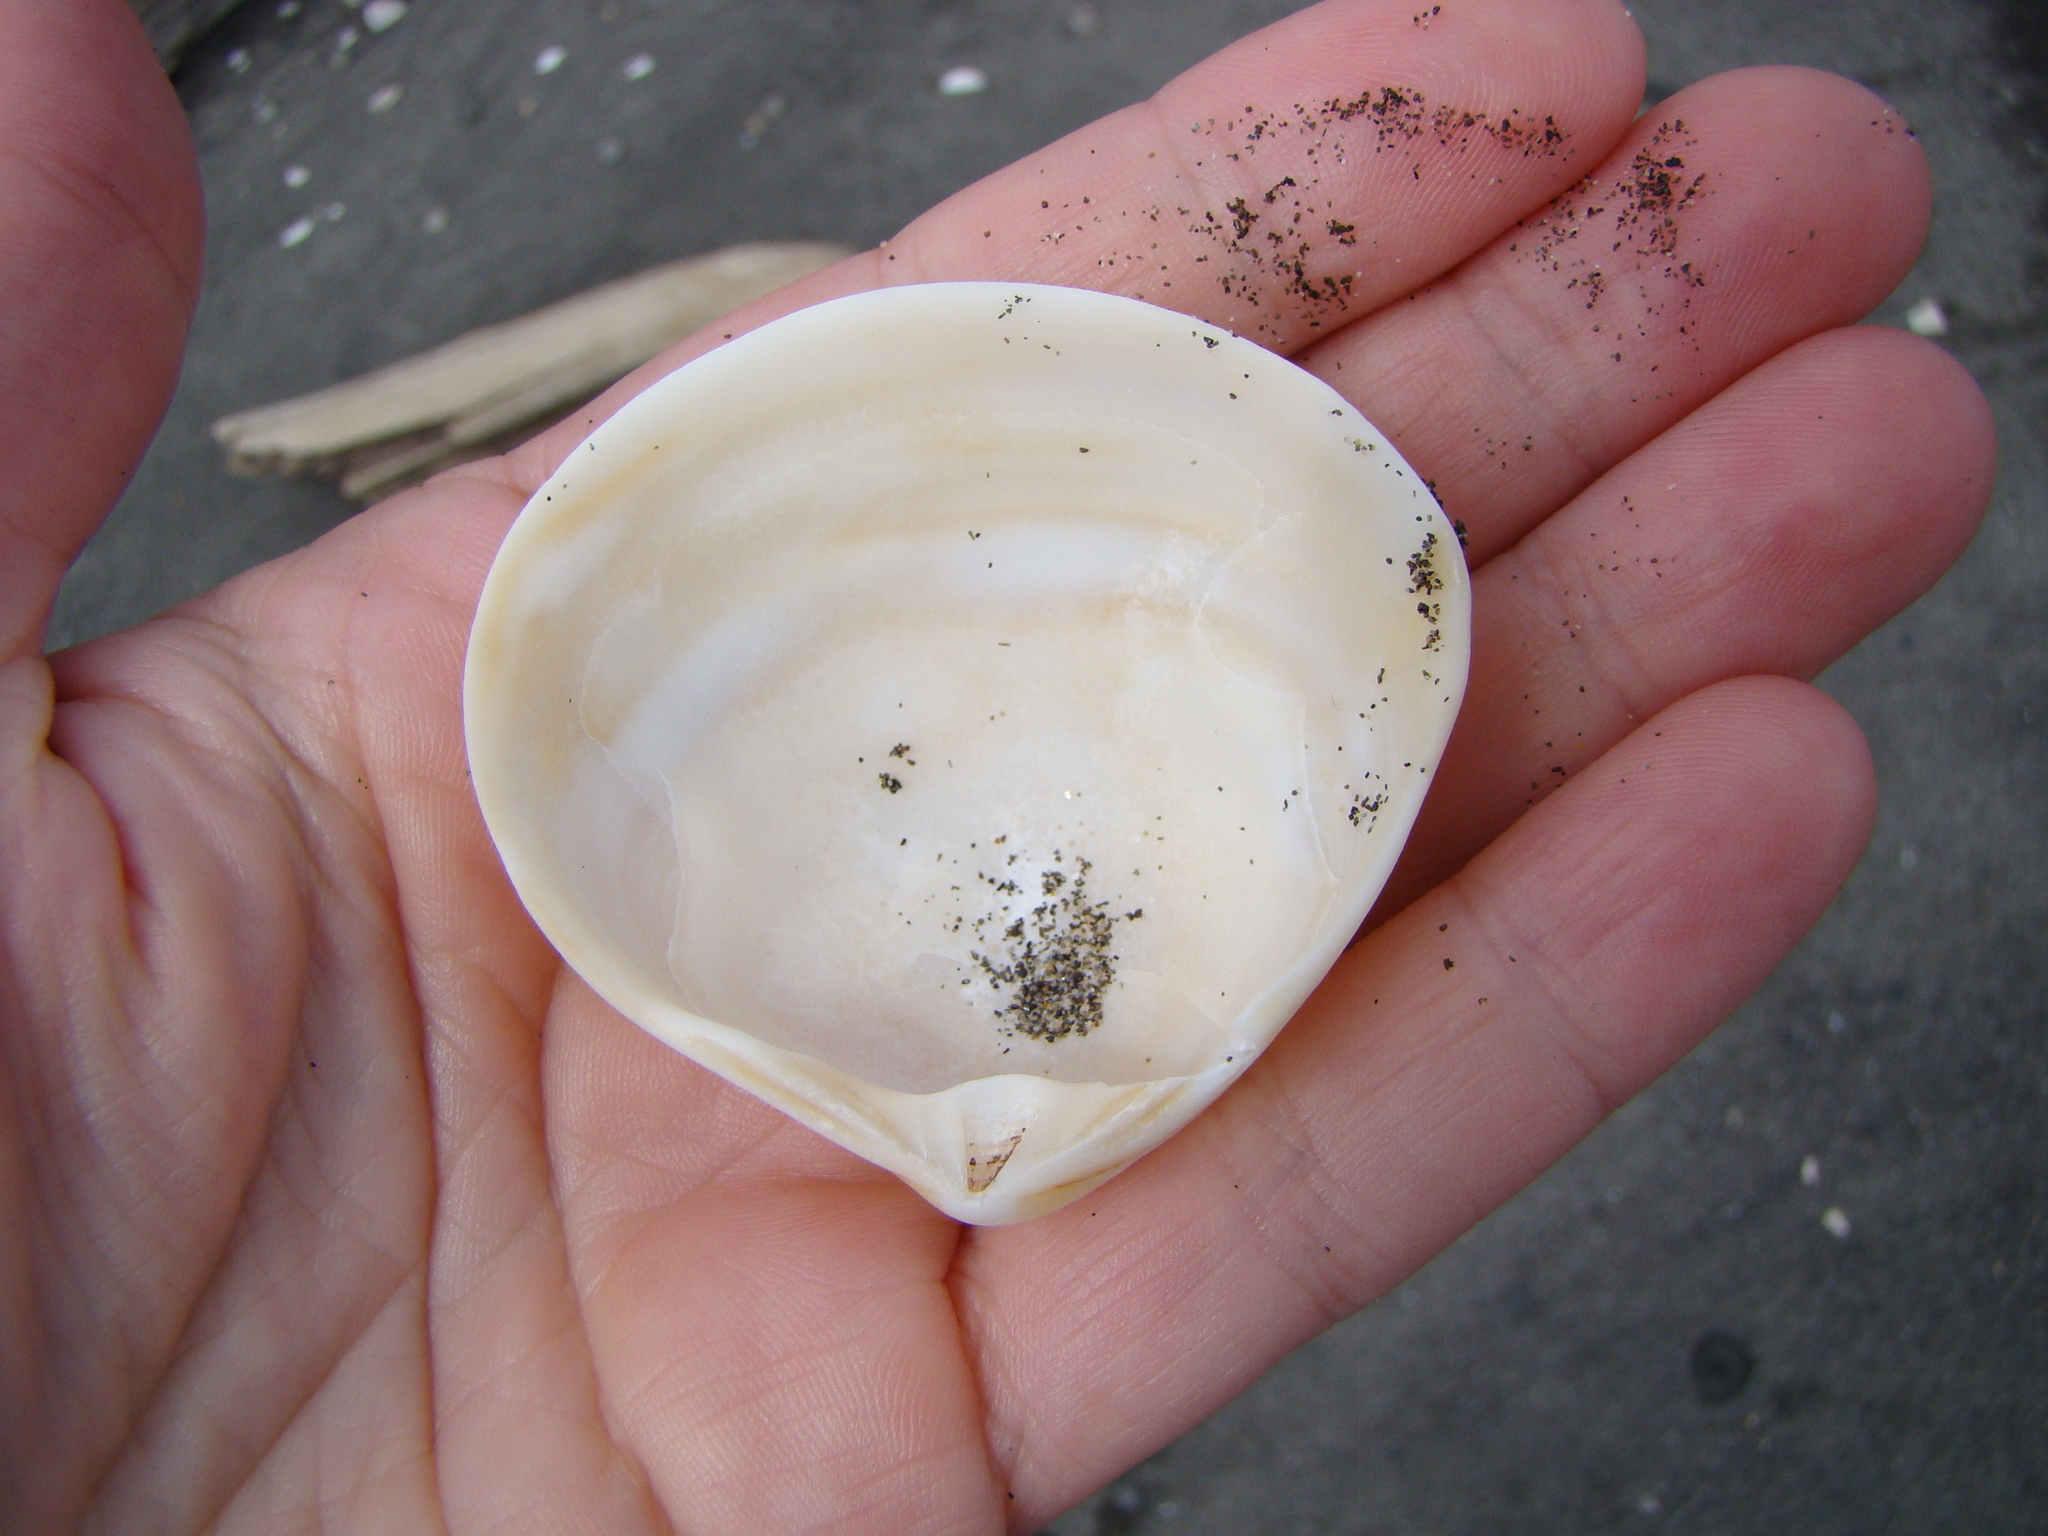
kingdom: Animalia
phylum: Mollusca
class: Bivalvia
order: Venerida
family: Mactridae
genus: Spisula
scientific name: Spisula discors
